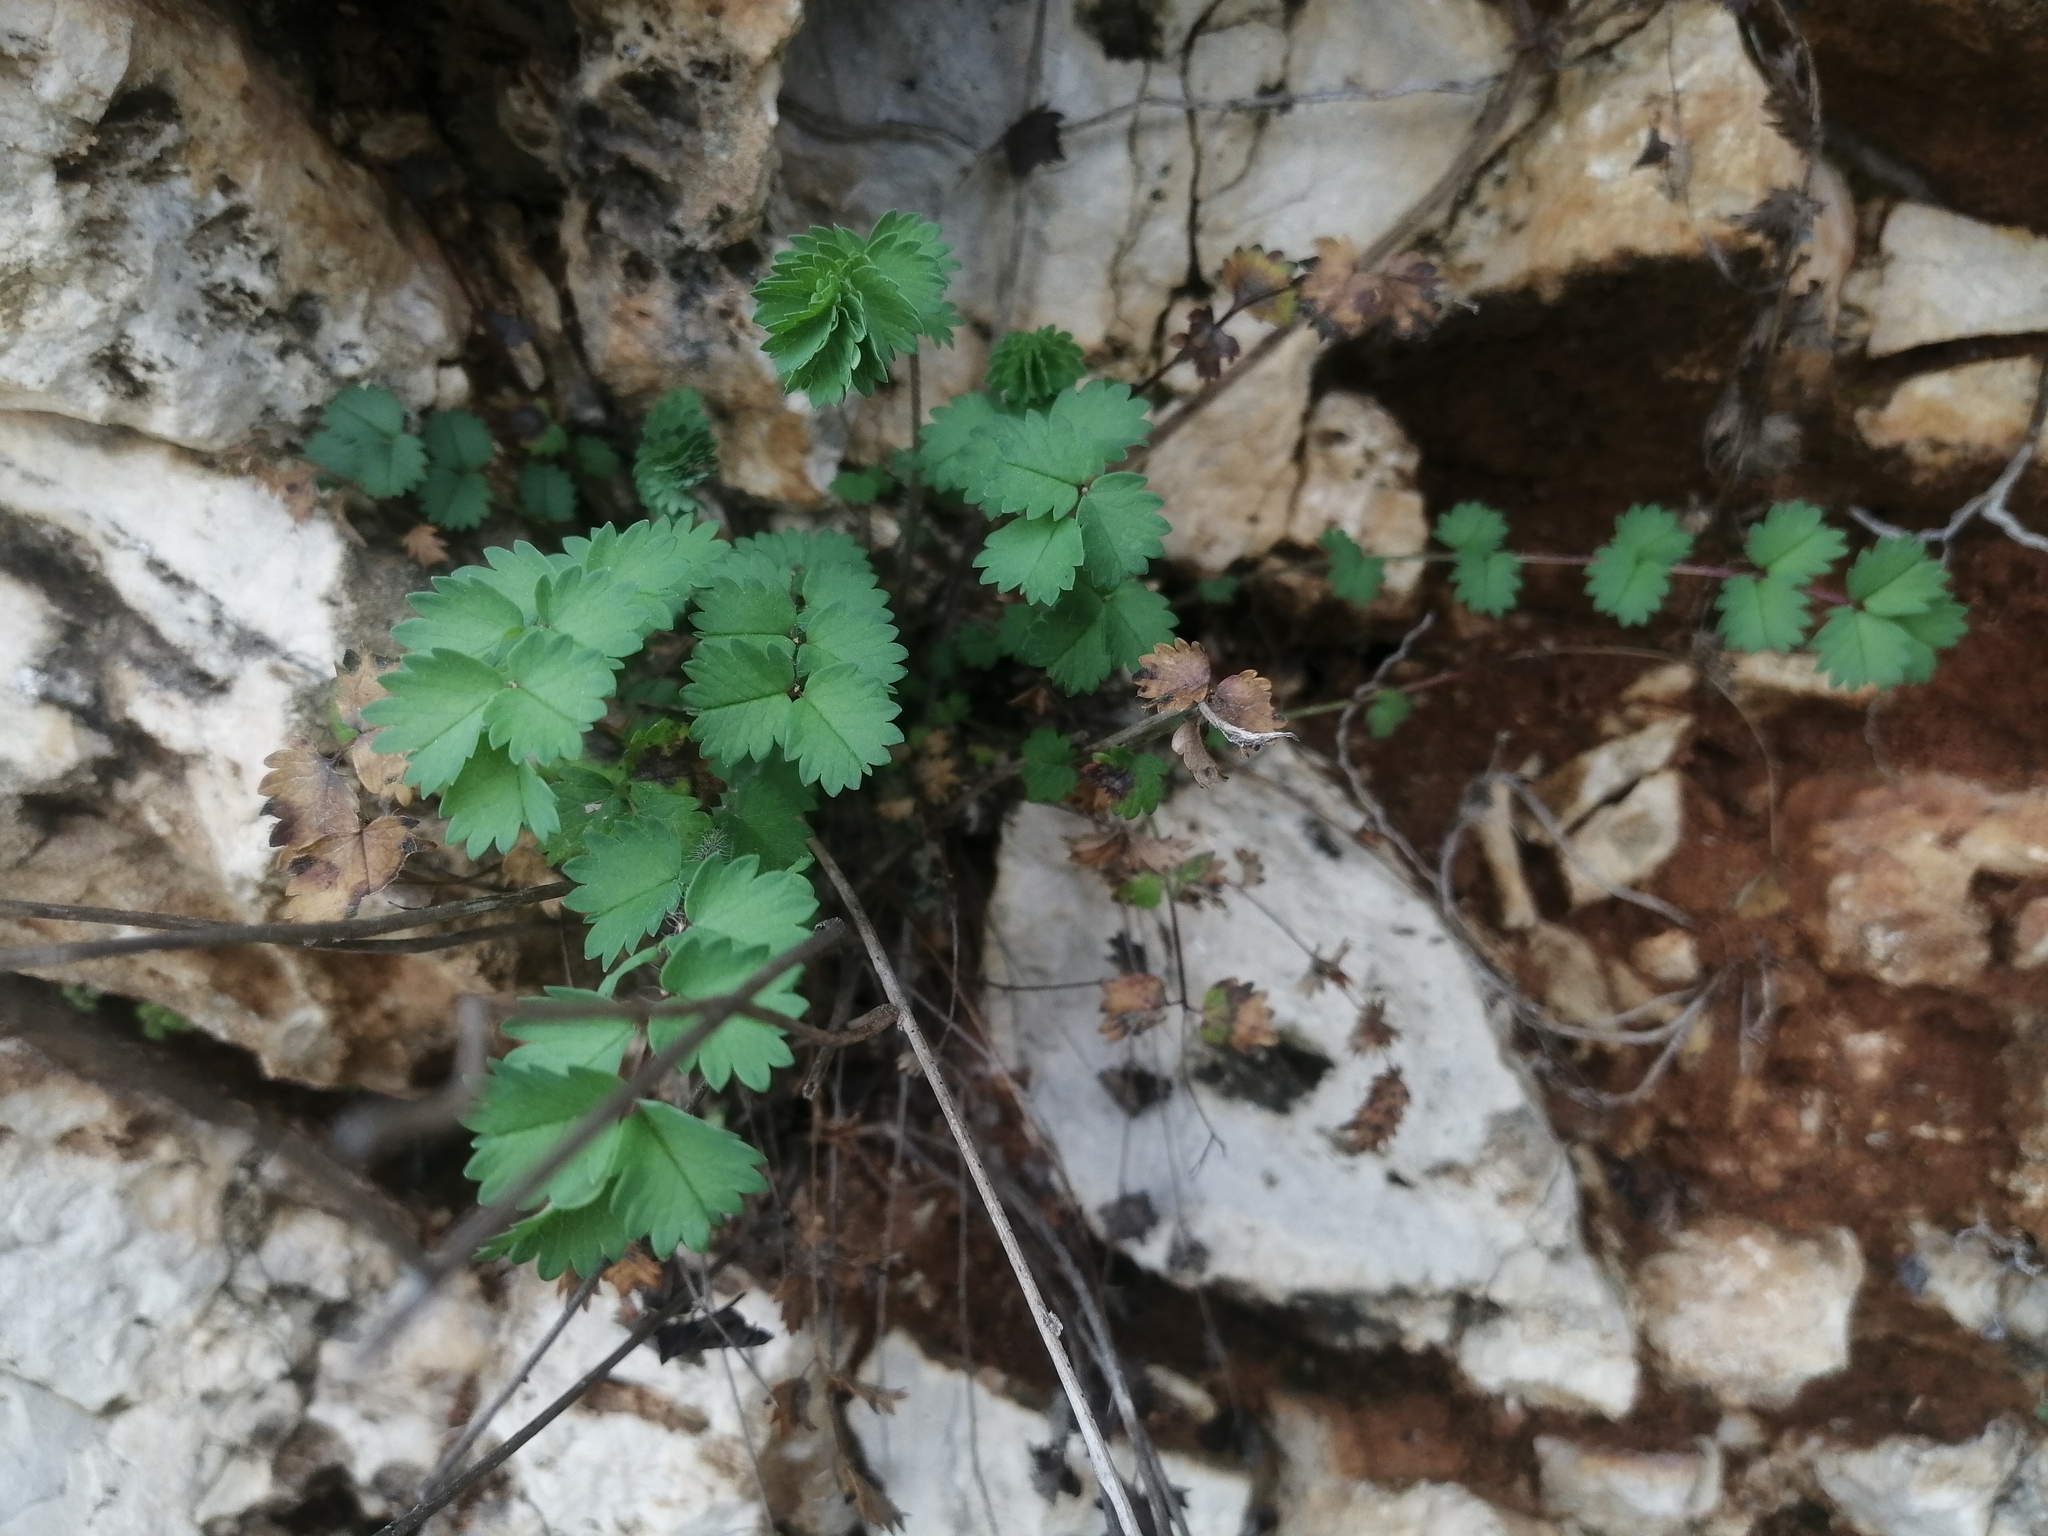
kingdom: Plantae
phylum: Tracheophyta
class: Magnoliopsida
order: Rosales
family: Rosaceae
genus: Poterium
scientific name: Poterium sanguisorba
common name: Salad burnet
